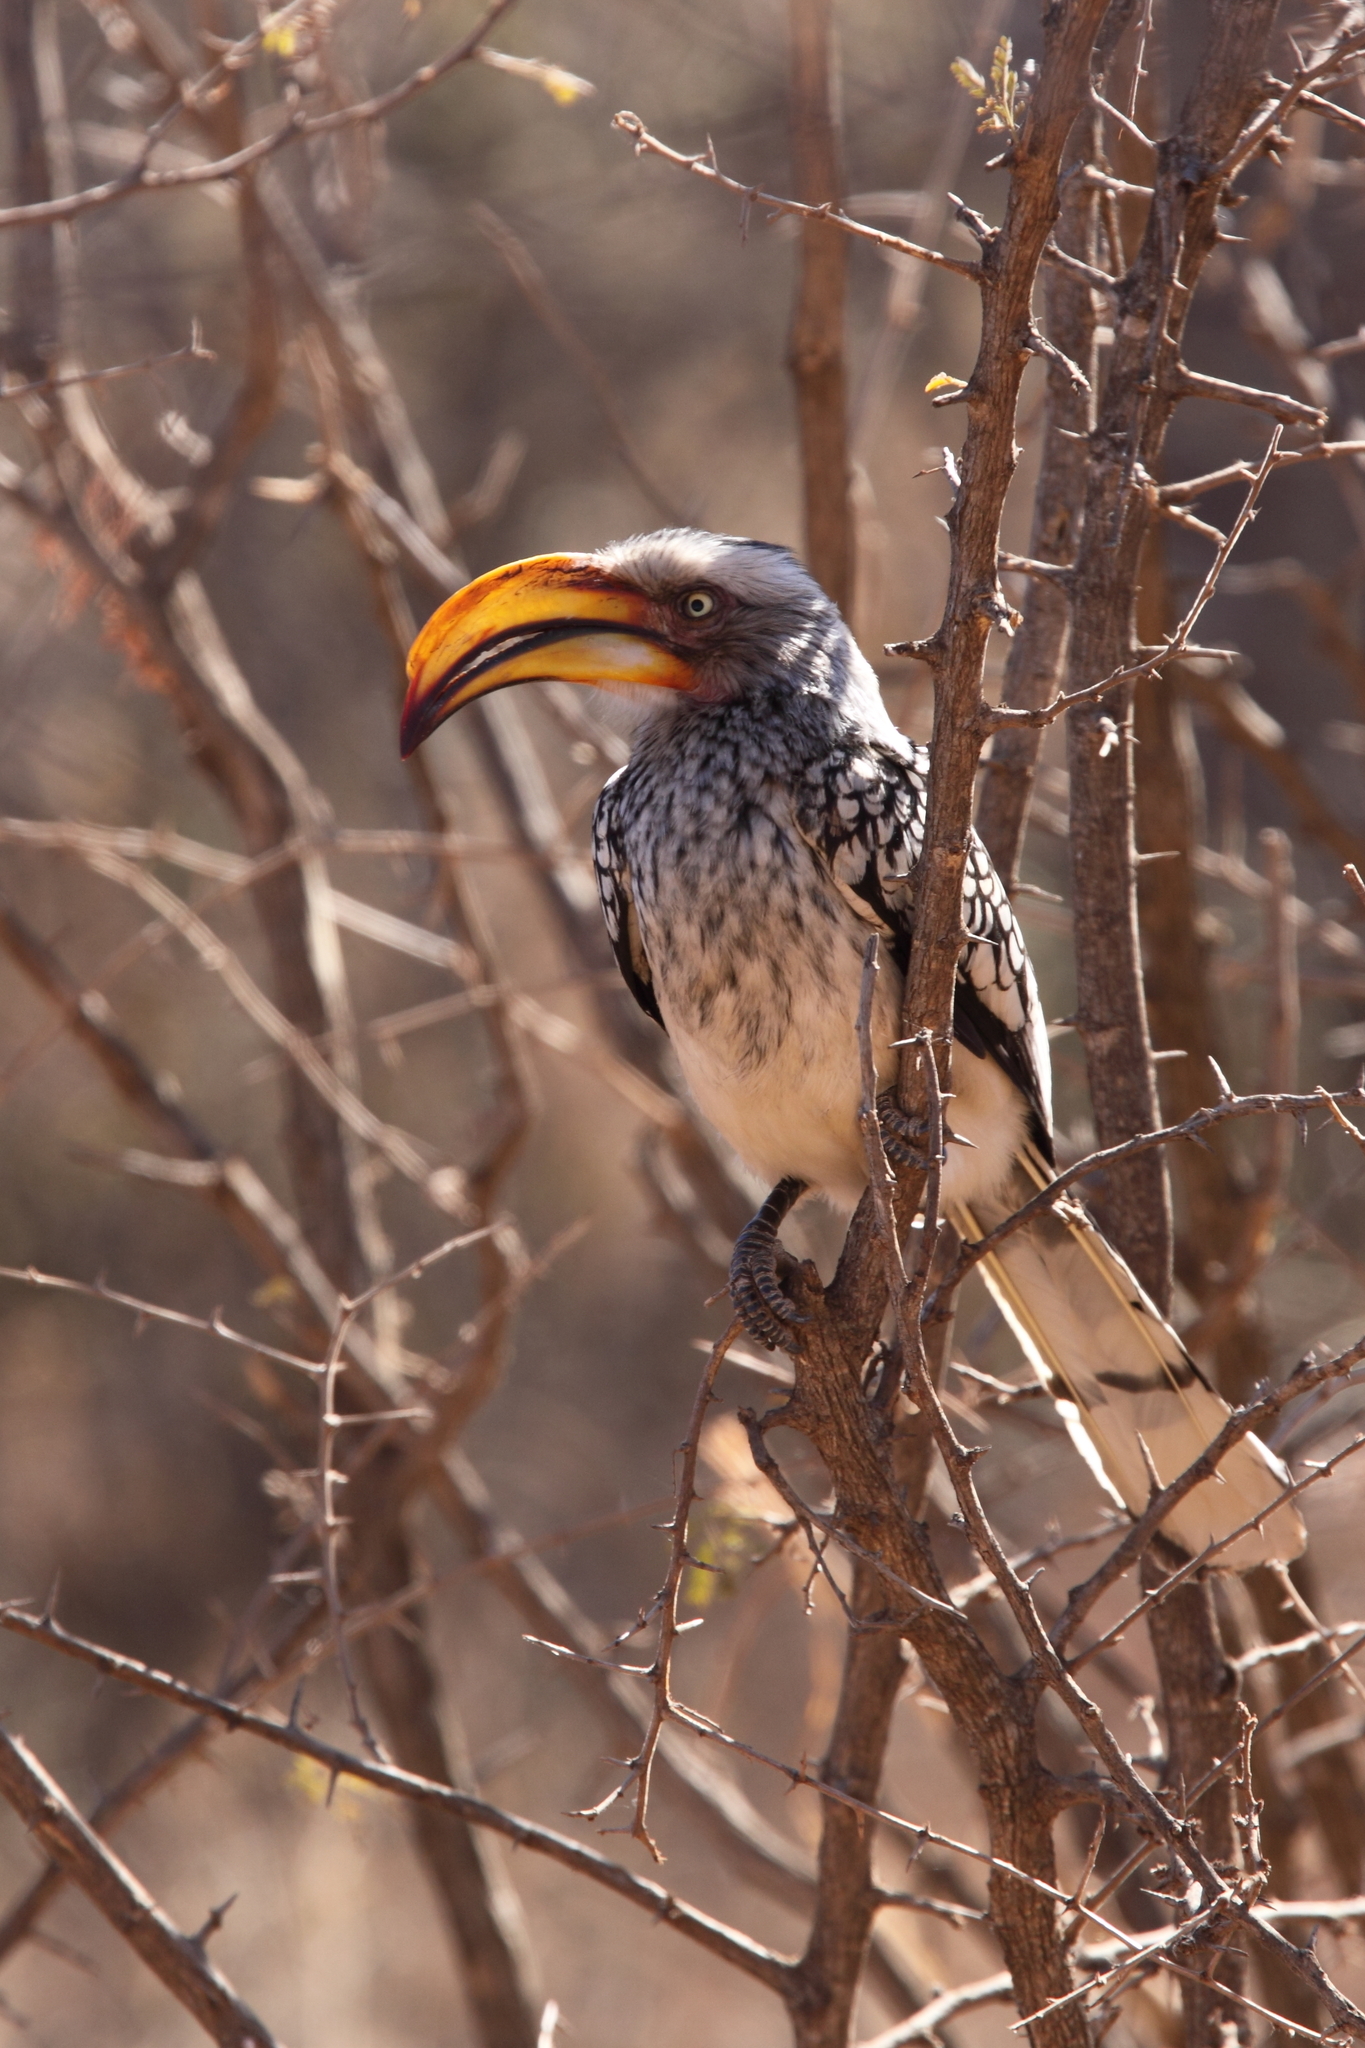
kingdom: Animalia
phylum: Chordata
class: Aves
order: Bucerotiformes
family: Bucerotidae
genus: Tockus
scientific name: Tockus leucomelas
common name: Southern yellow-billed hornbill
